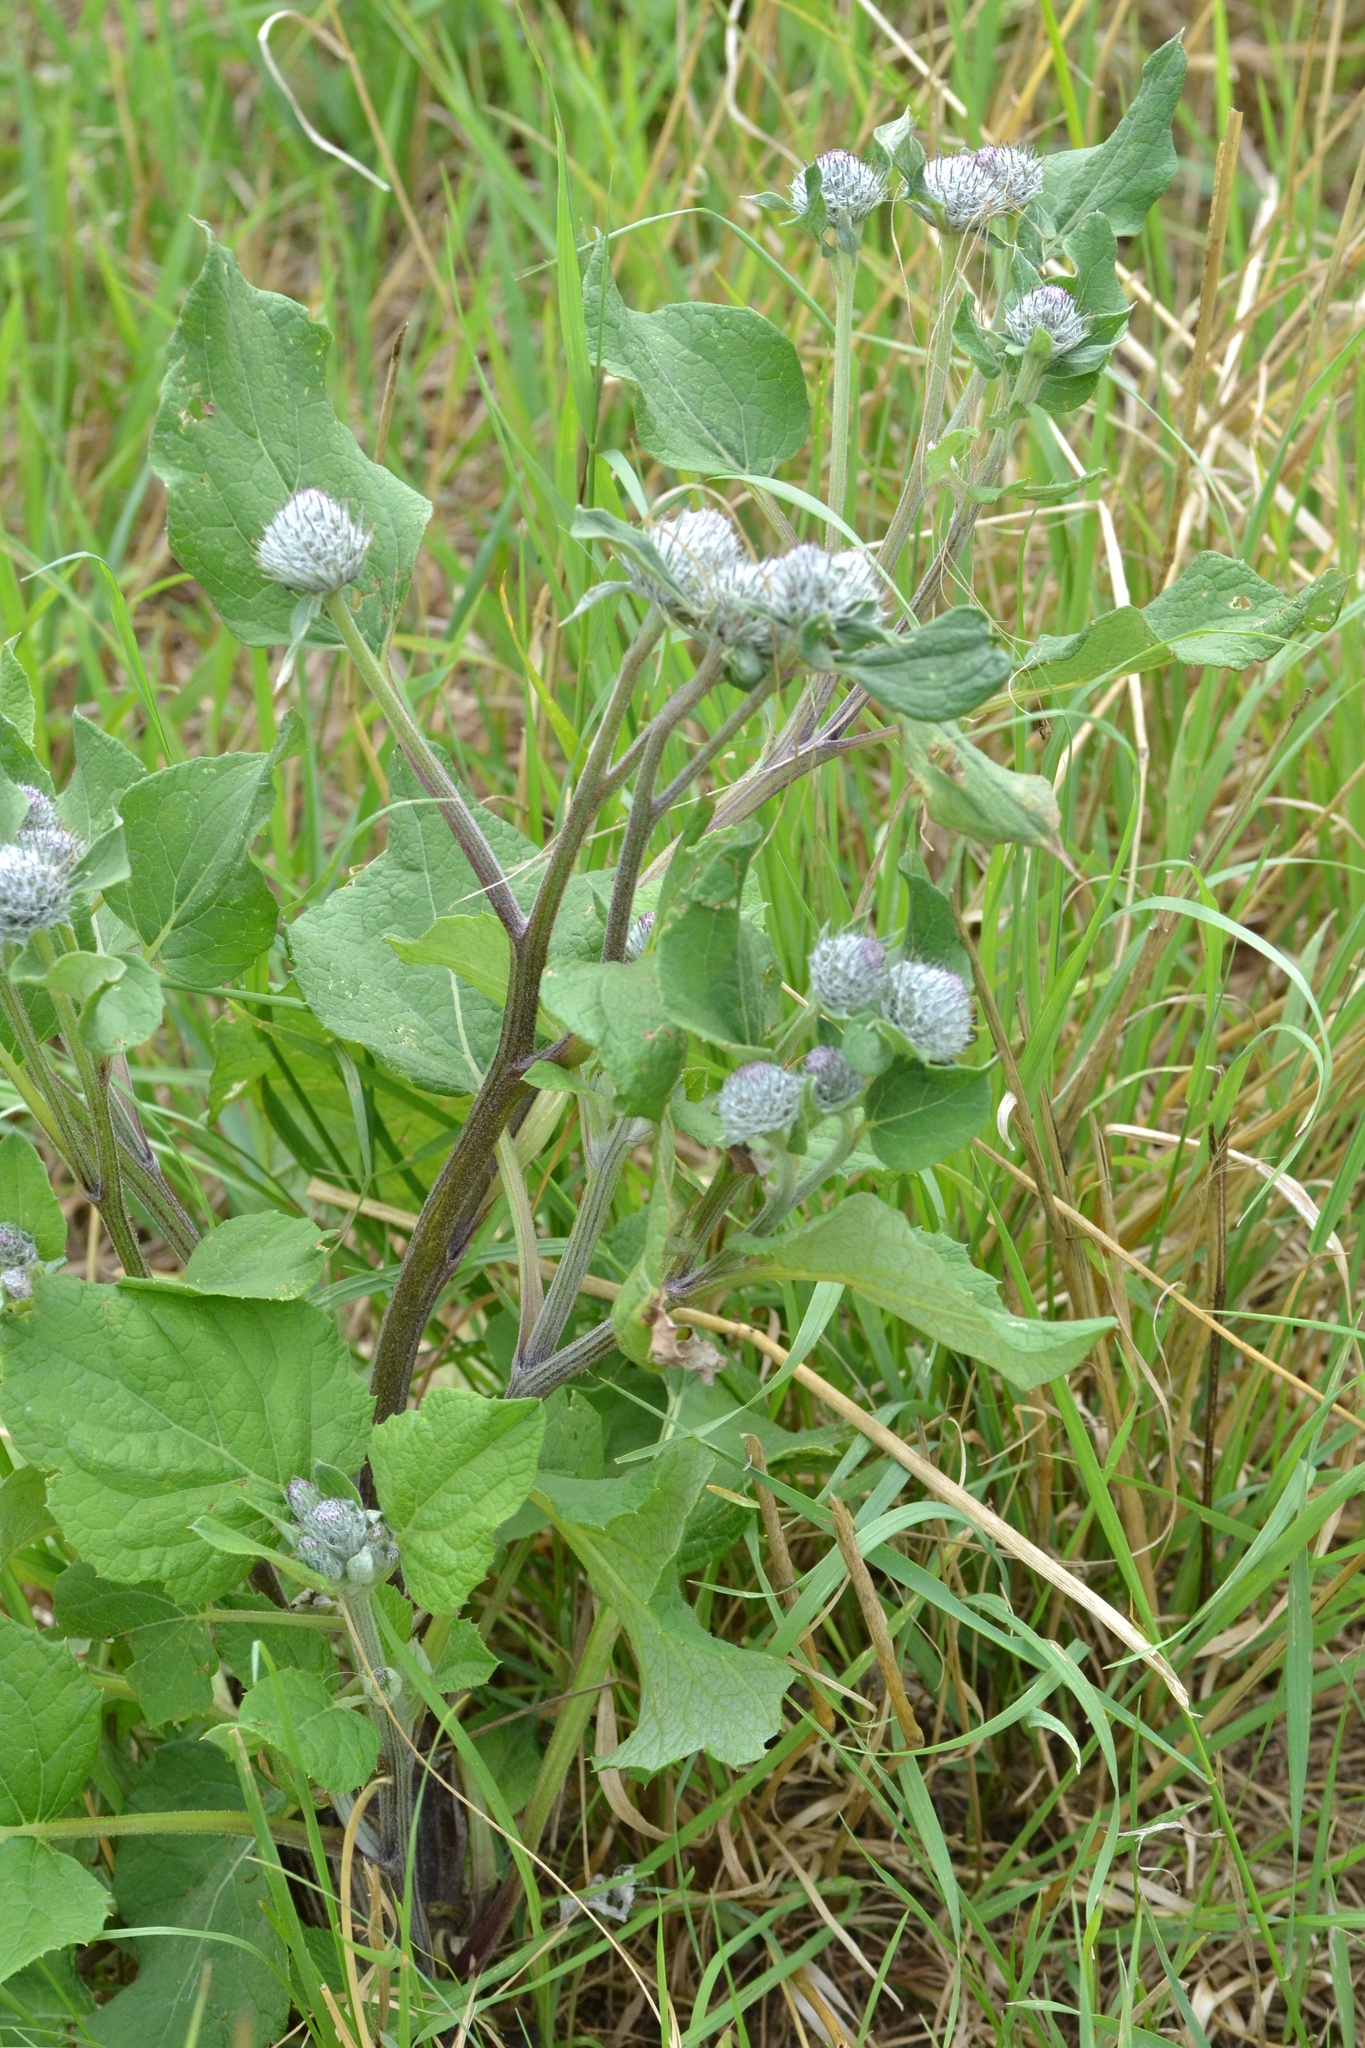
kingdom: Plantae
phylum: Tracheophyta
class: Magnoliopsida
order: Asterales
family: Asteraceae
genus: Arctium
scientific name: Arctium tomentosum
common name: Woolly burdock
